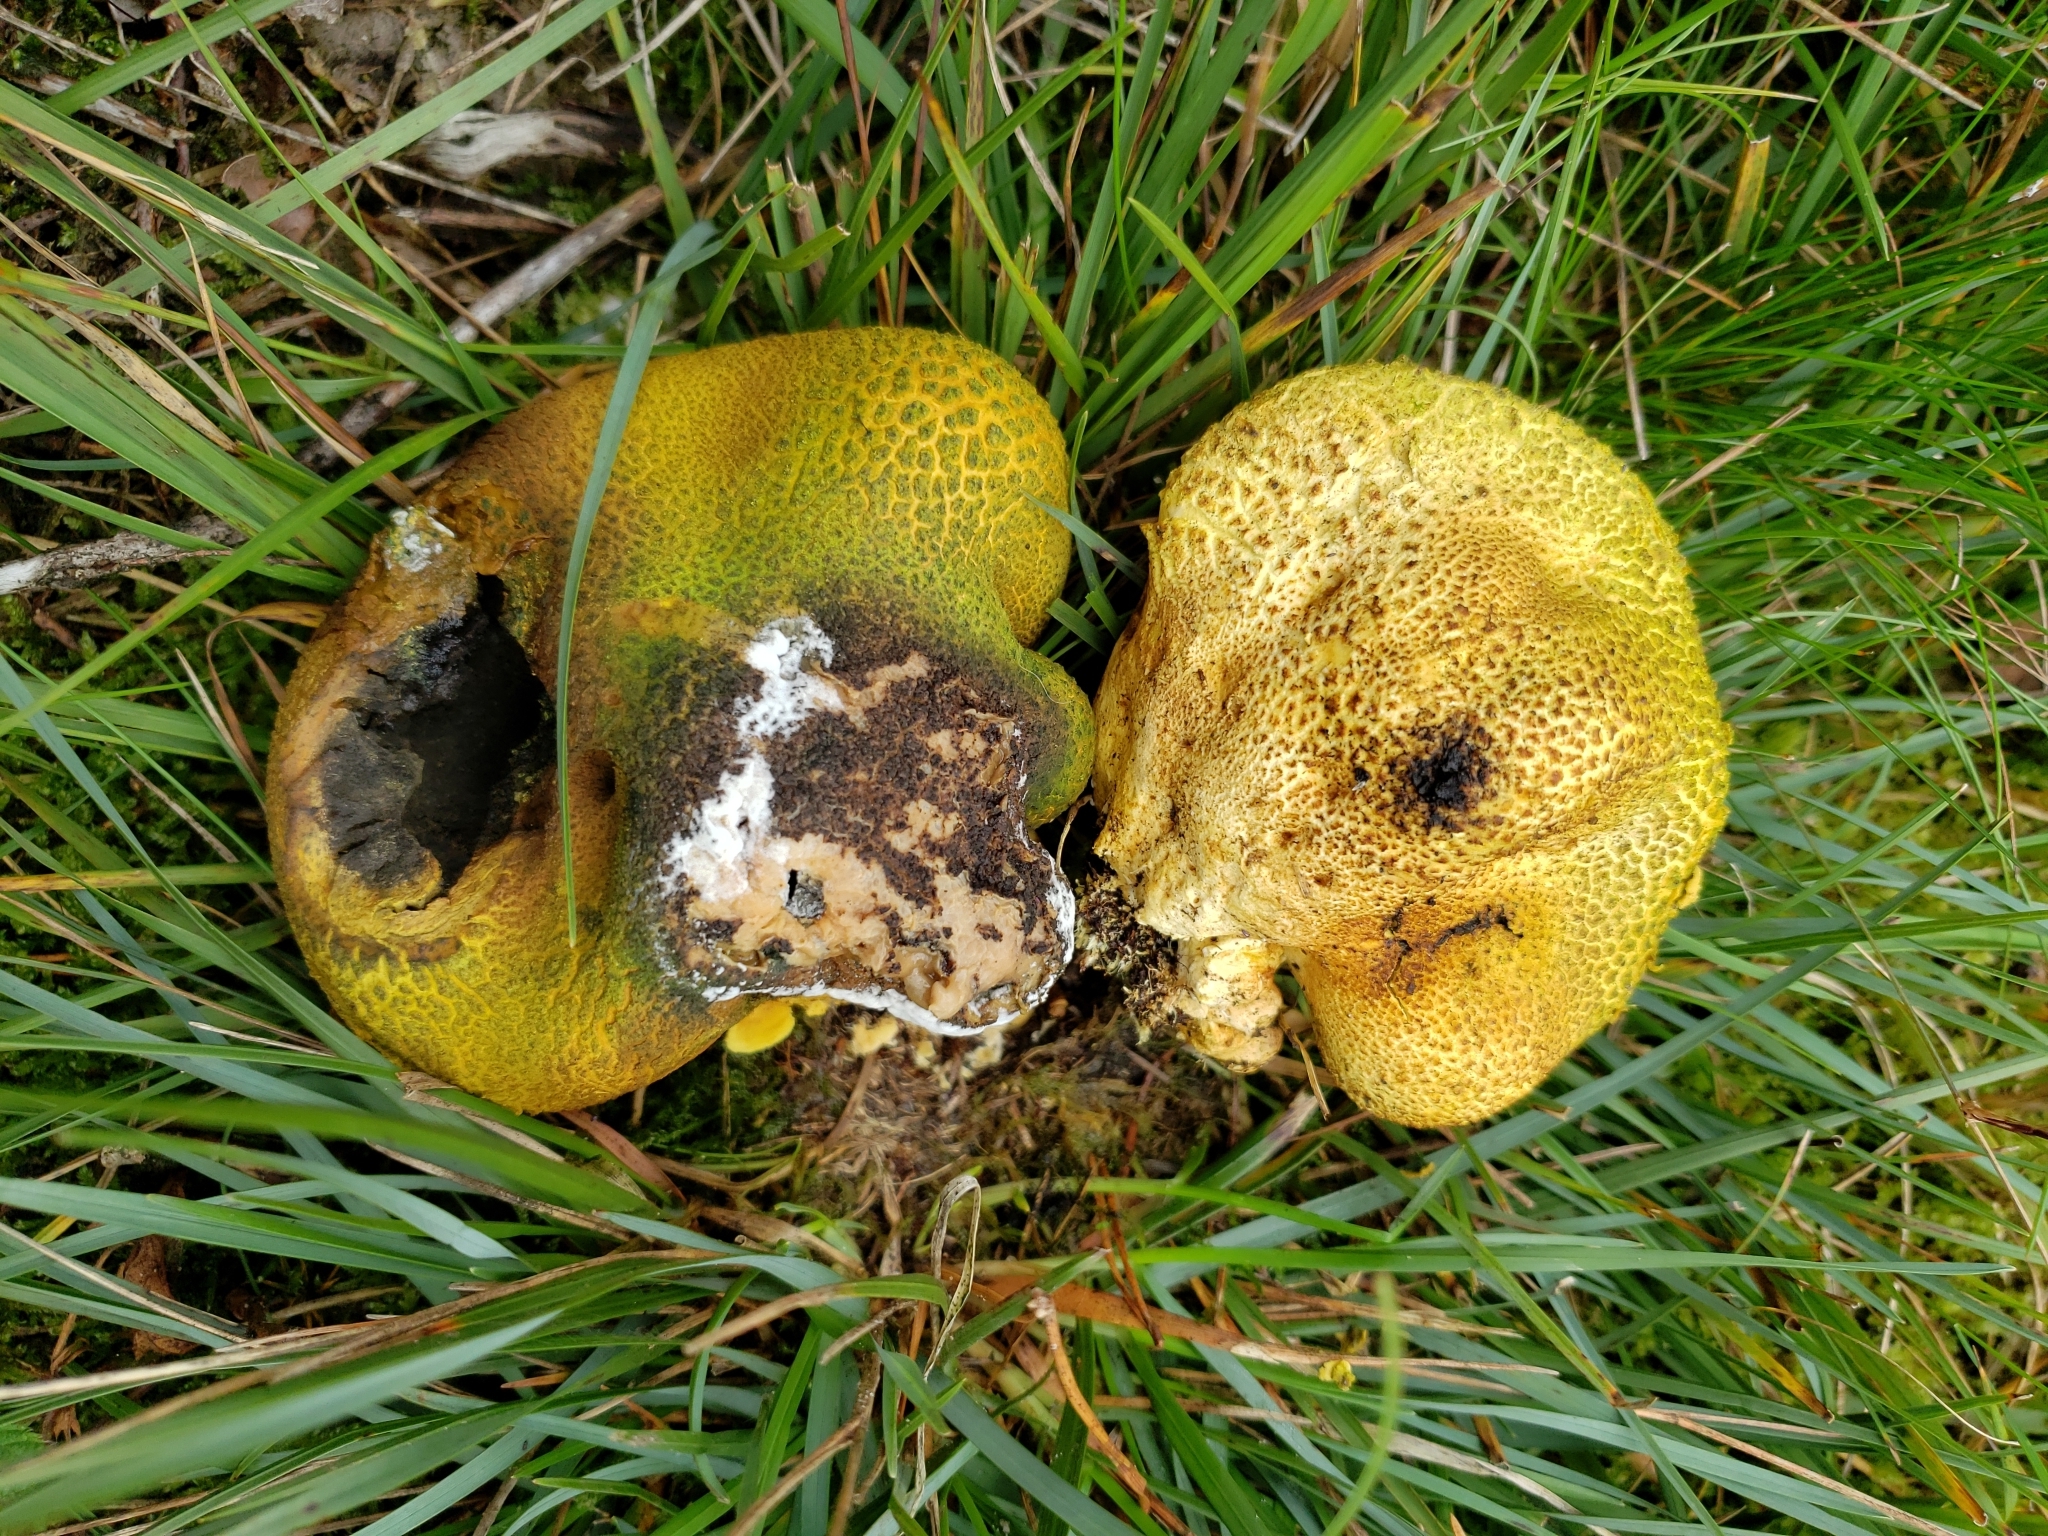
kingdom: Fungi
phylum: Basidiomycota
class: Agaricomycetes
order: Boletales
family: Sclerodermataceae
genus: Scleroderma
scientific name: Scleroderma citrinum
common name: Common earthball
